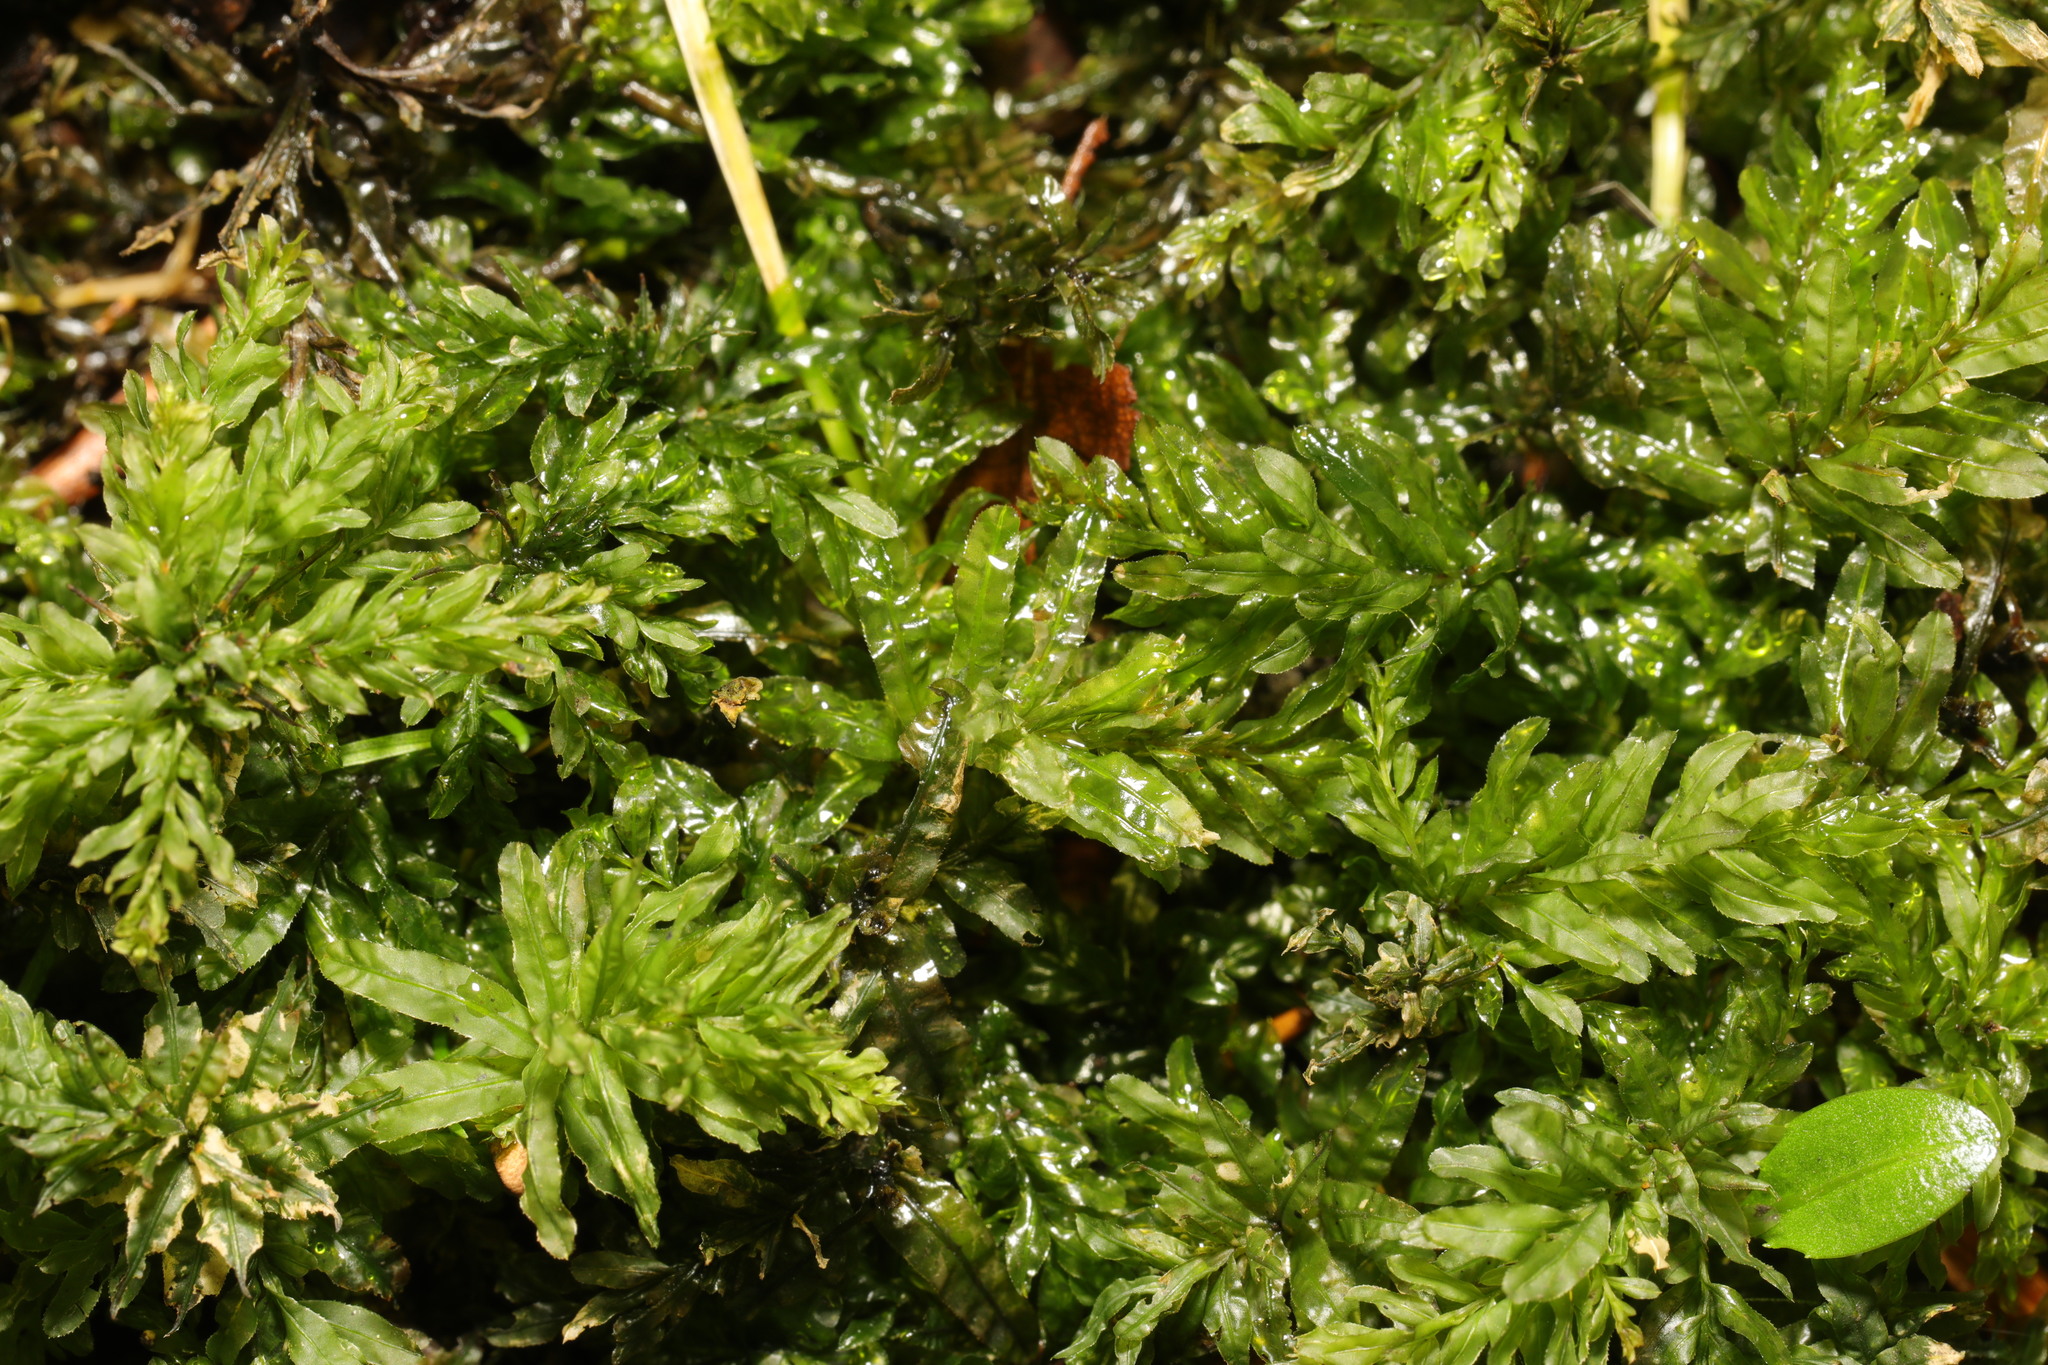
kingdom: Plantae
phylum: Bryophyta
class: Bryopsida
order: Bryales
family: Mniaceae
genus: Plagiomnium
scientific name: Plagiomnium undulatum
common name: Hart's-tongue thyme-moss
